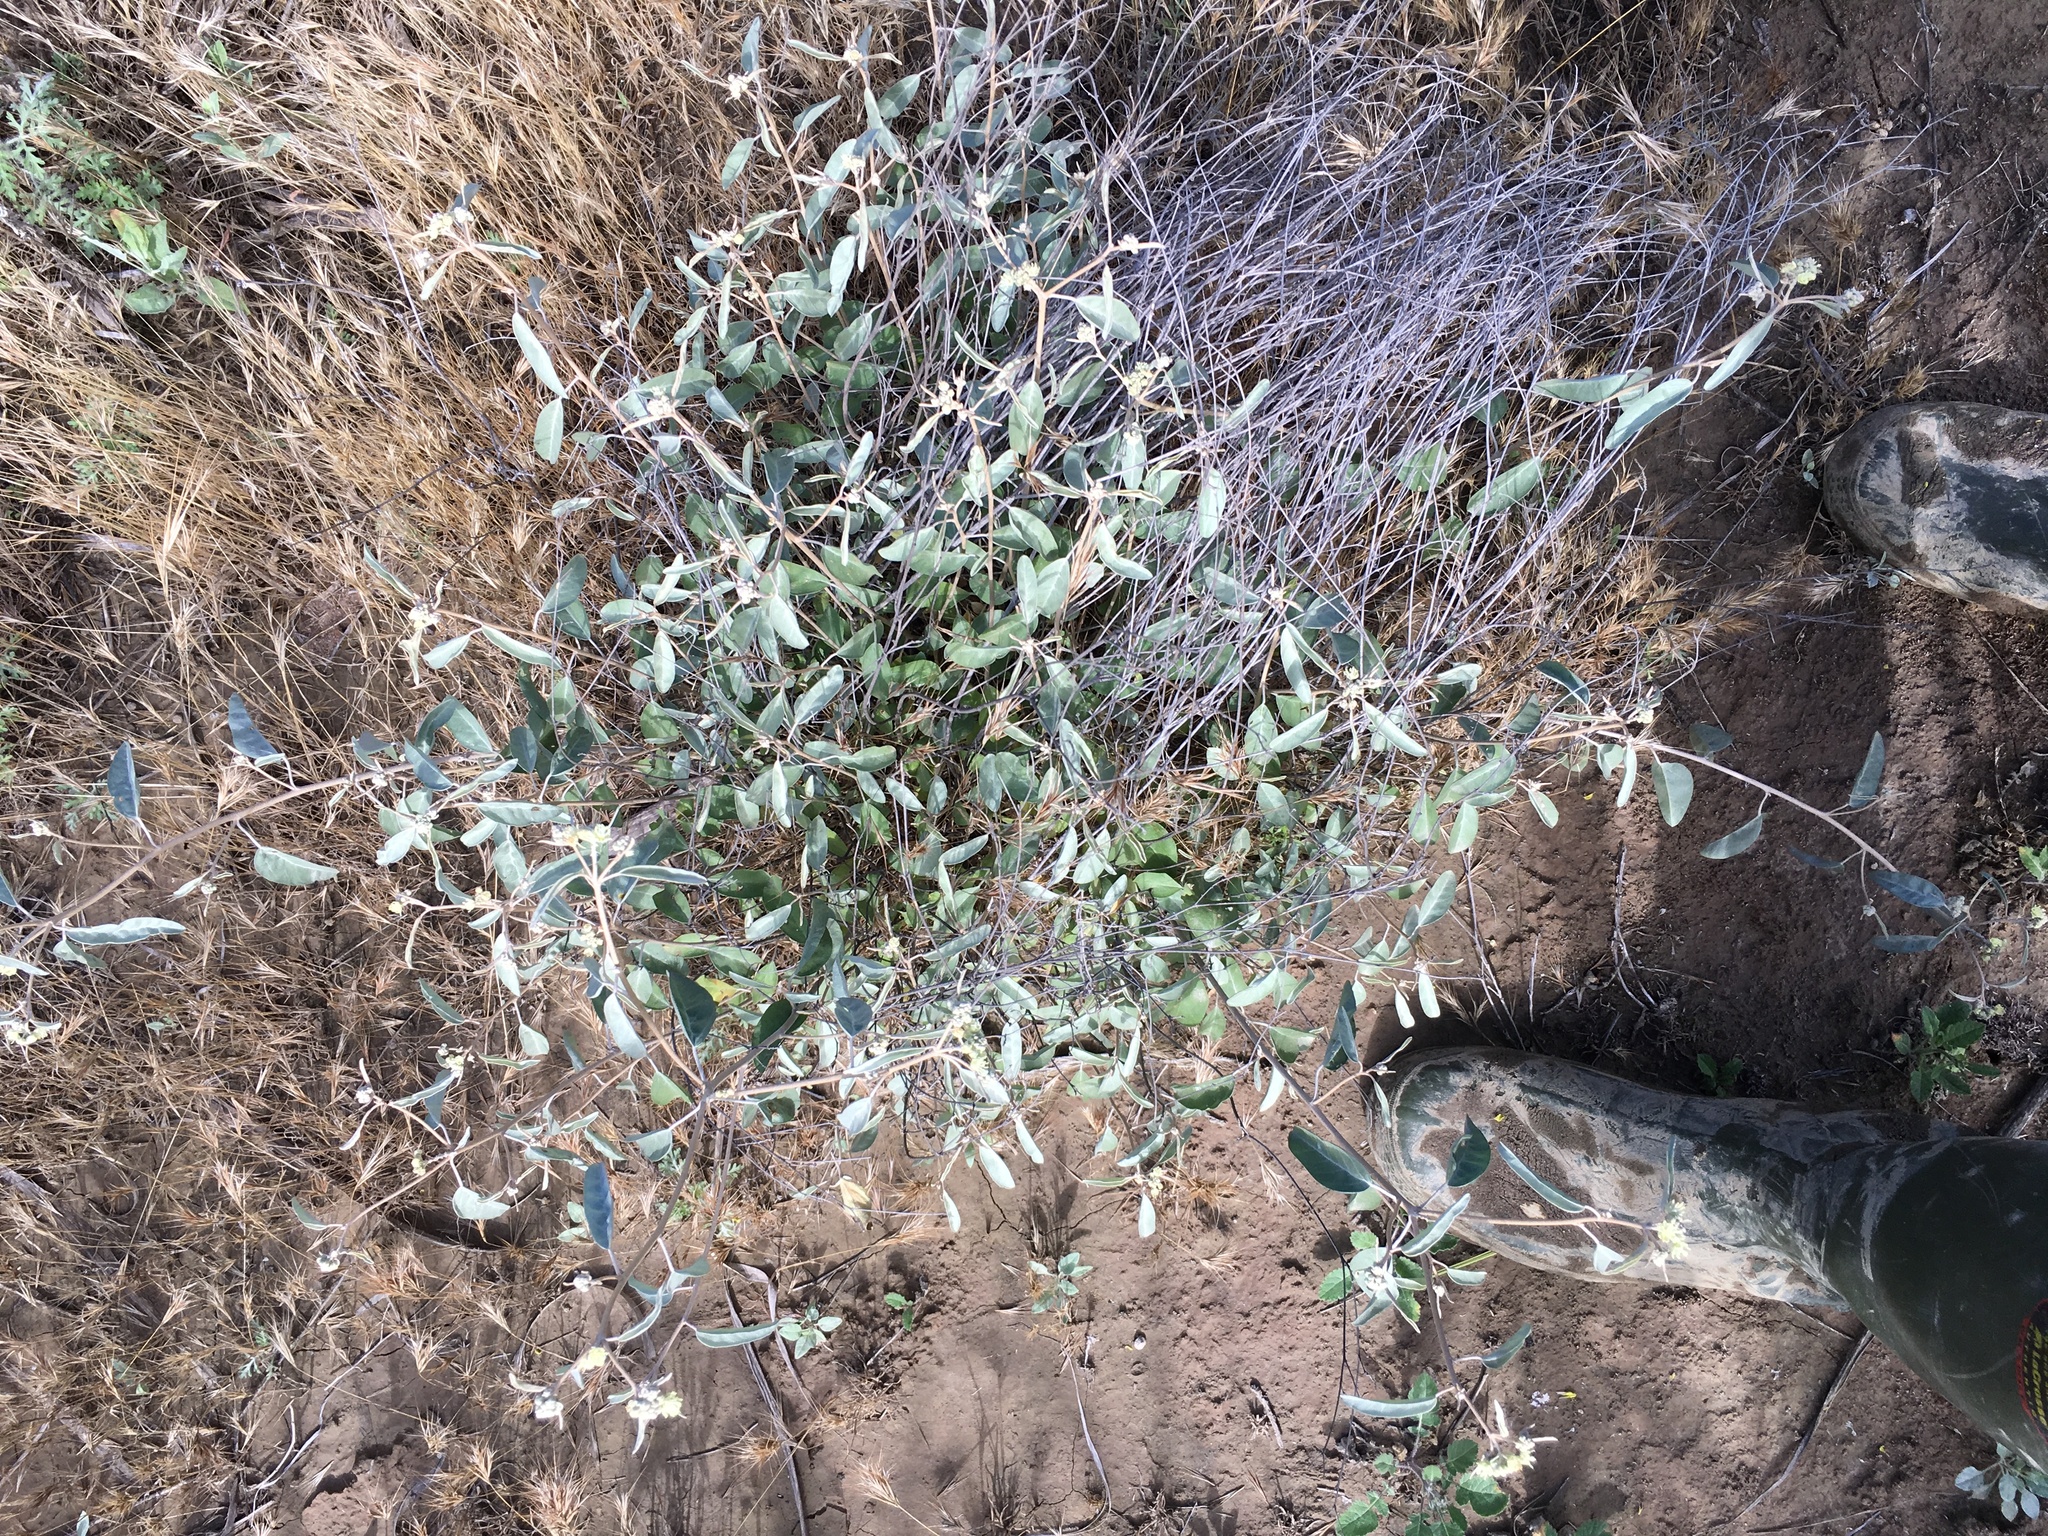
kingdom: Plantae
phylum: Tracheophyta
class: Magnoliopsida
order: Malpighiales
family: Euphorbiaceae
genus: Croton
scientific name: Croton californicus
